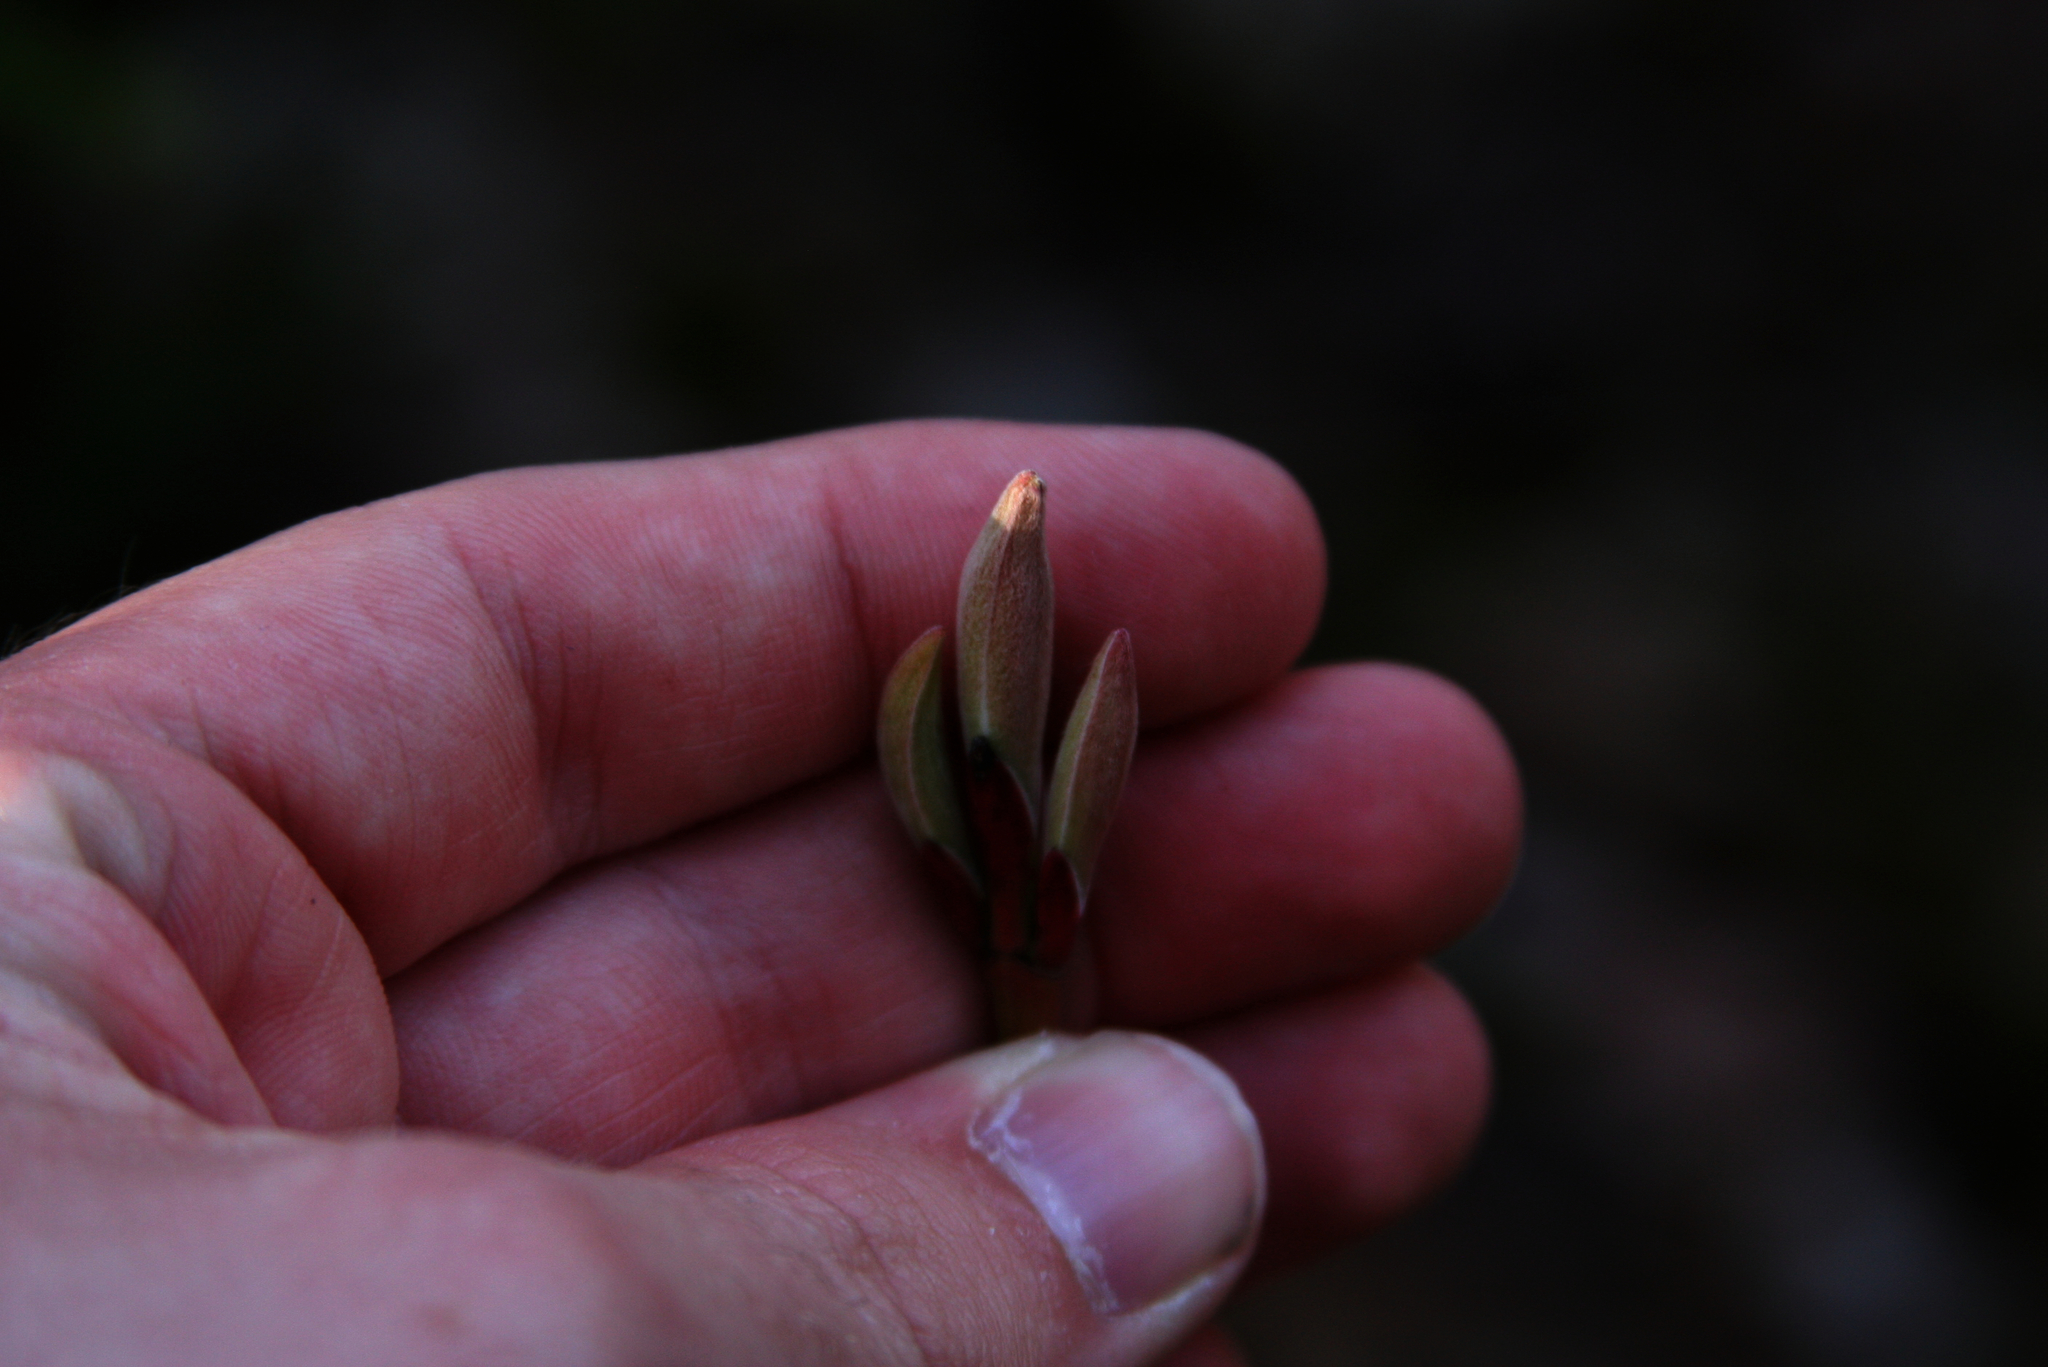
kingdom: Plantae
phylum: Tracheophyta
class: Magnoliopsida
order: Sapindales
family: Sapindaceae
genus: Acer
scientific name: Acer pensylvanicum
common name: Moosewood
